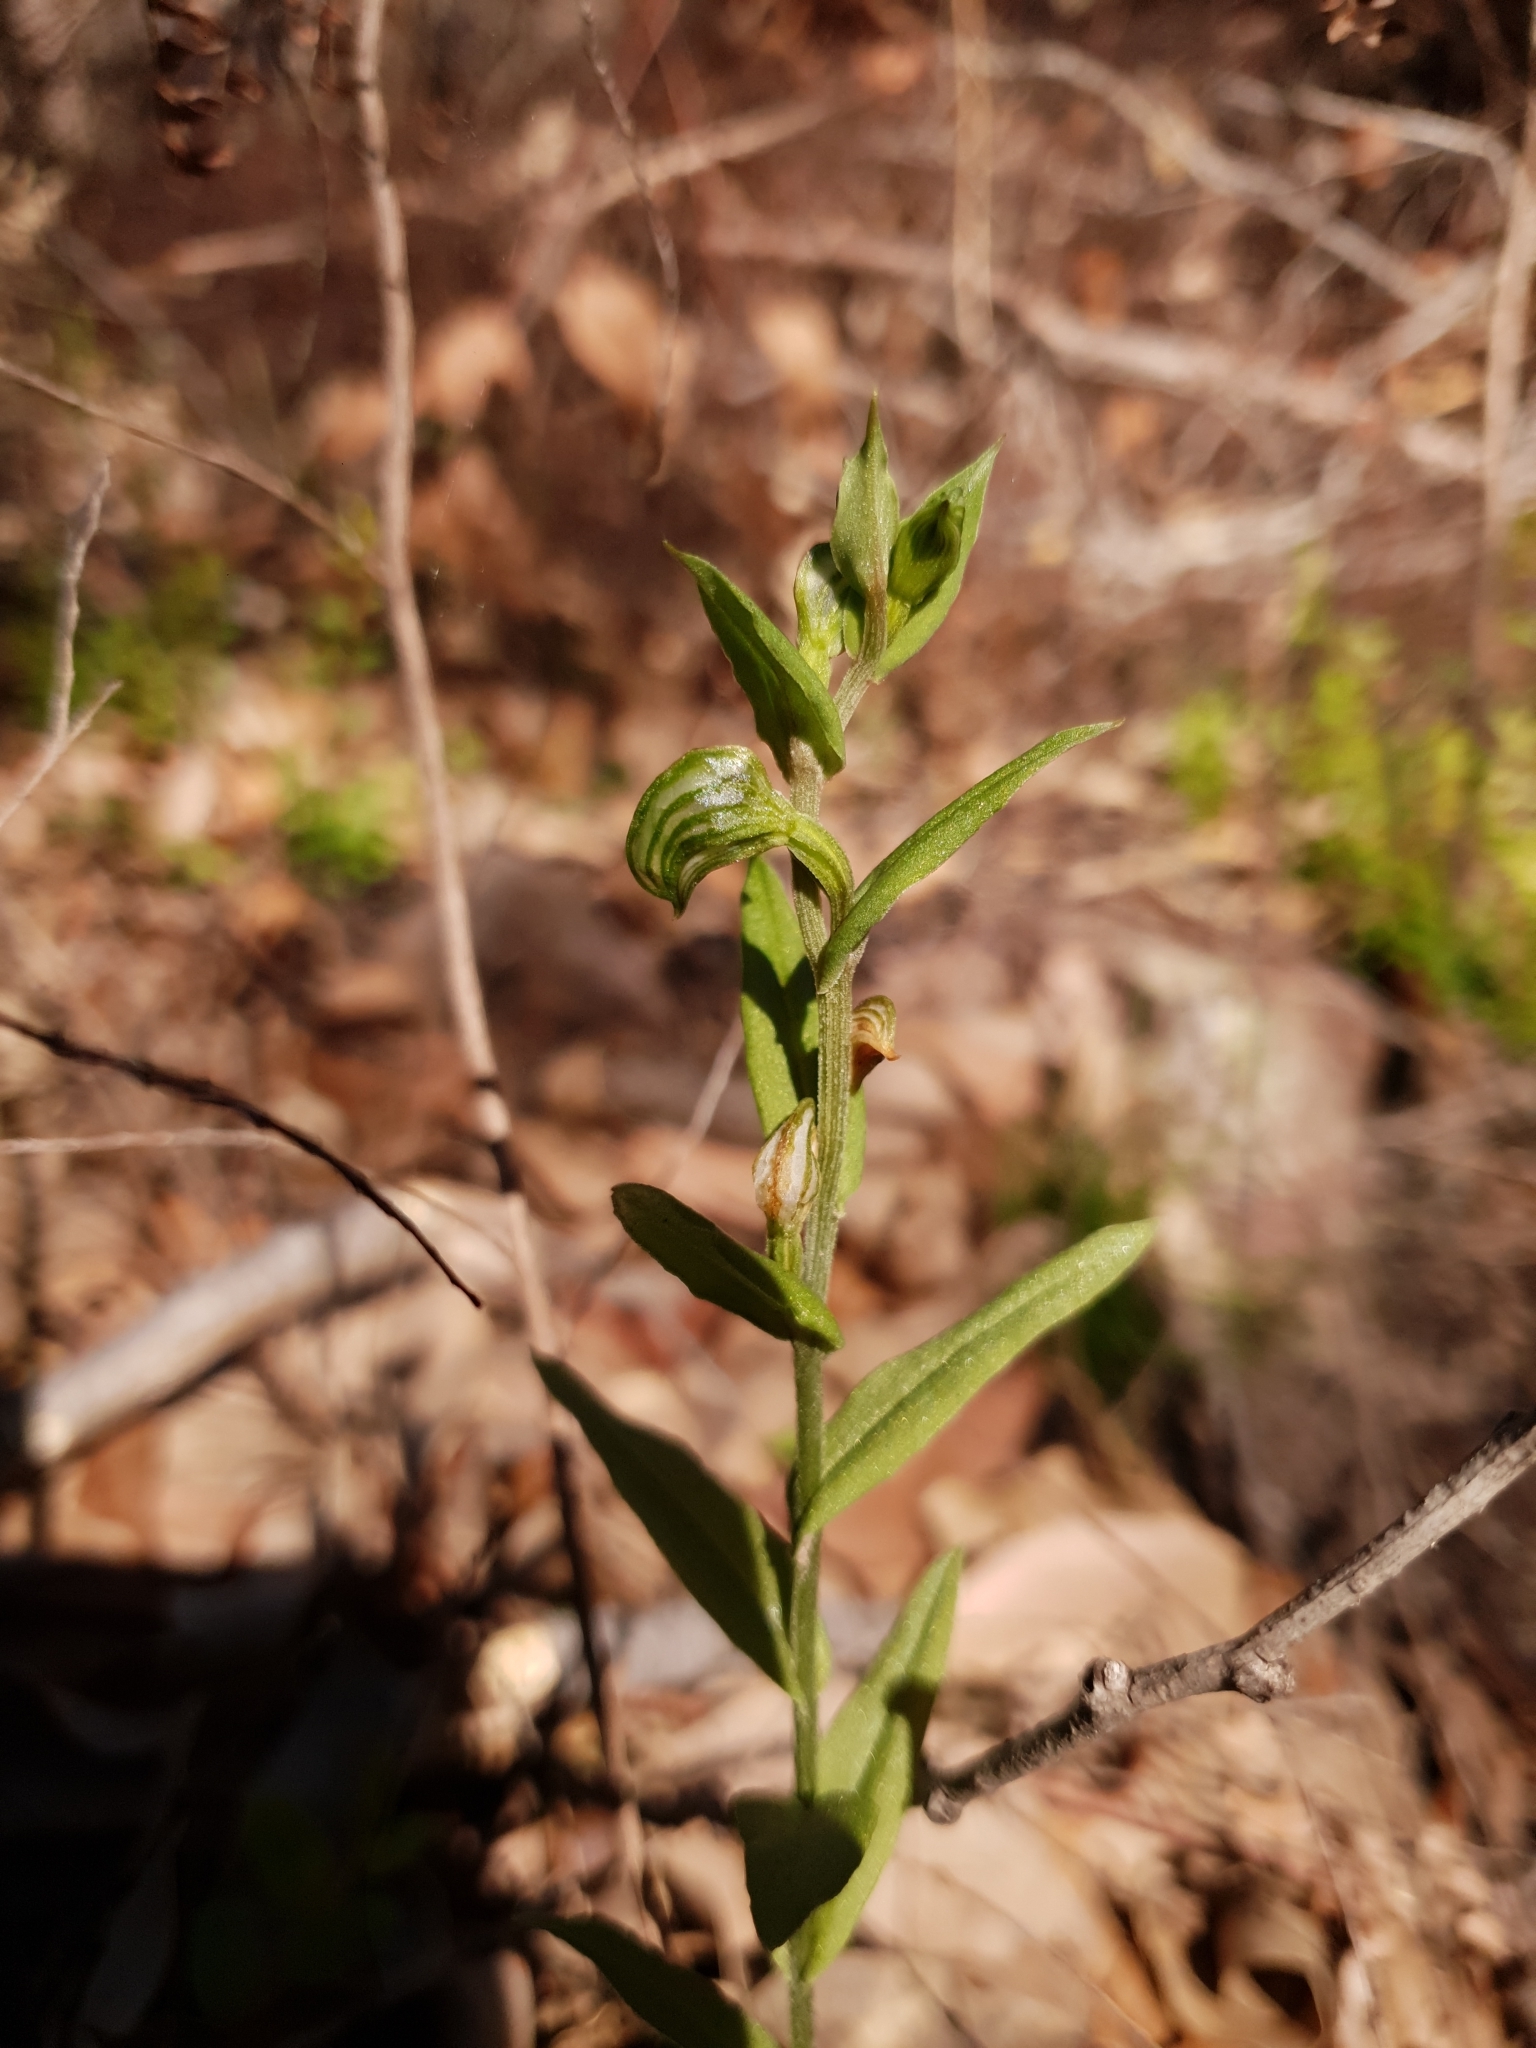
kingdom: Plantae
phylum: Tracheophyta
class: Liliopsida
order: Asparagales
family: Orchidaceae
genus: Pterostylis
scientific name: Pterostylis vittata
